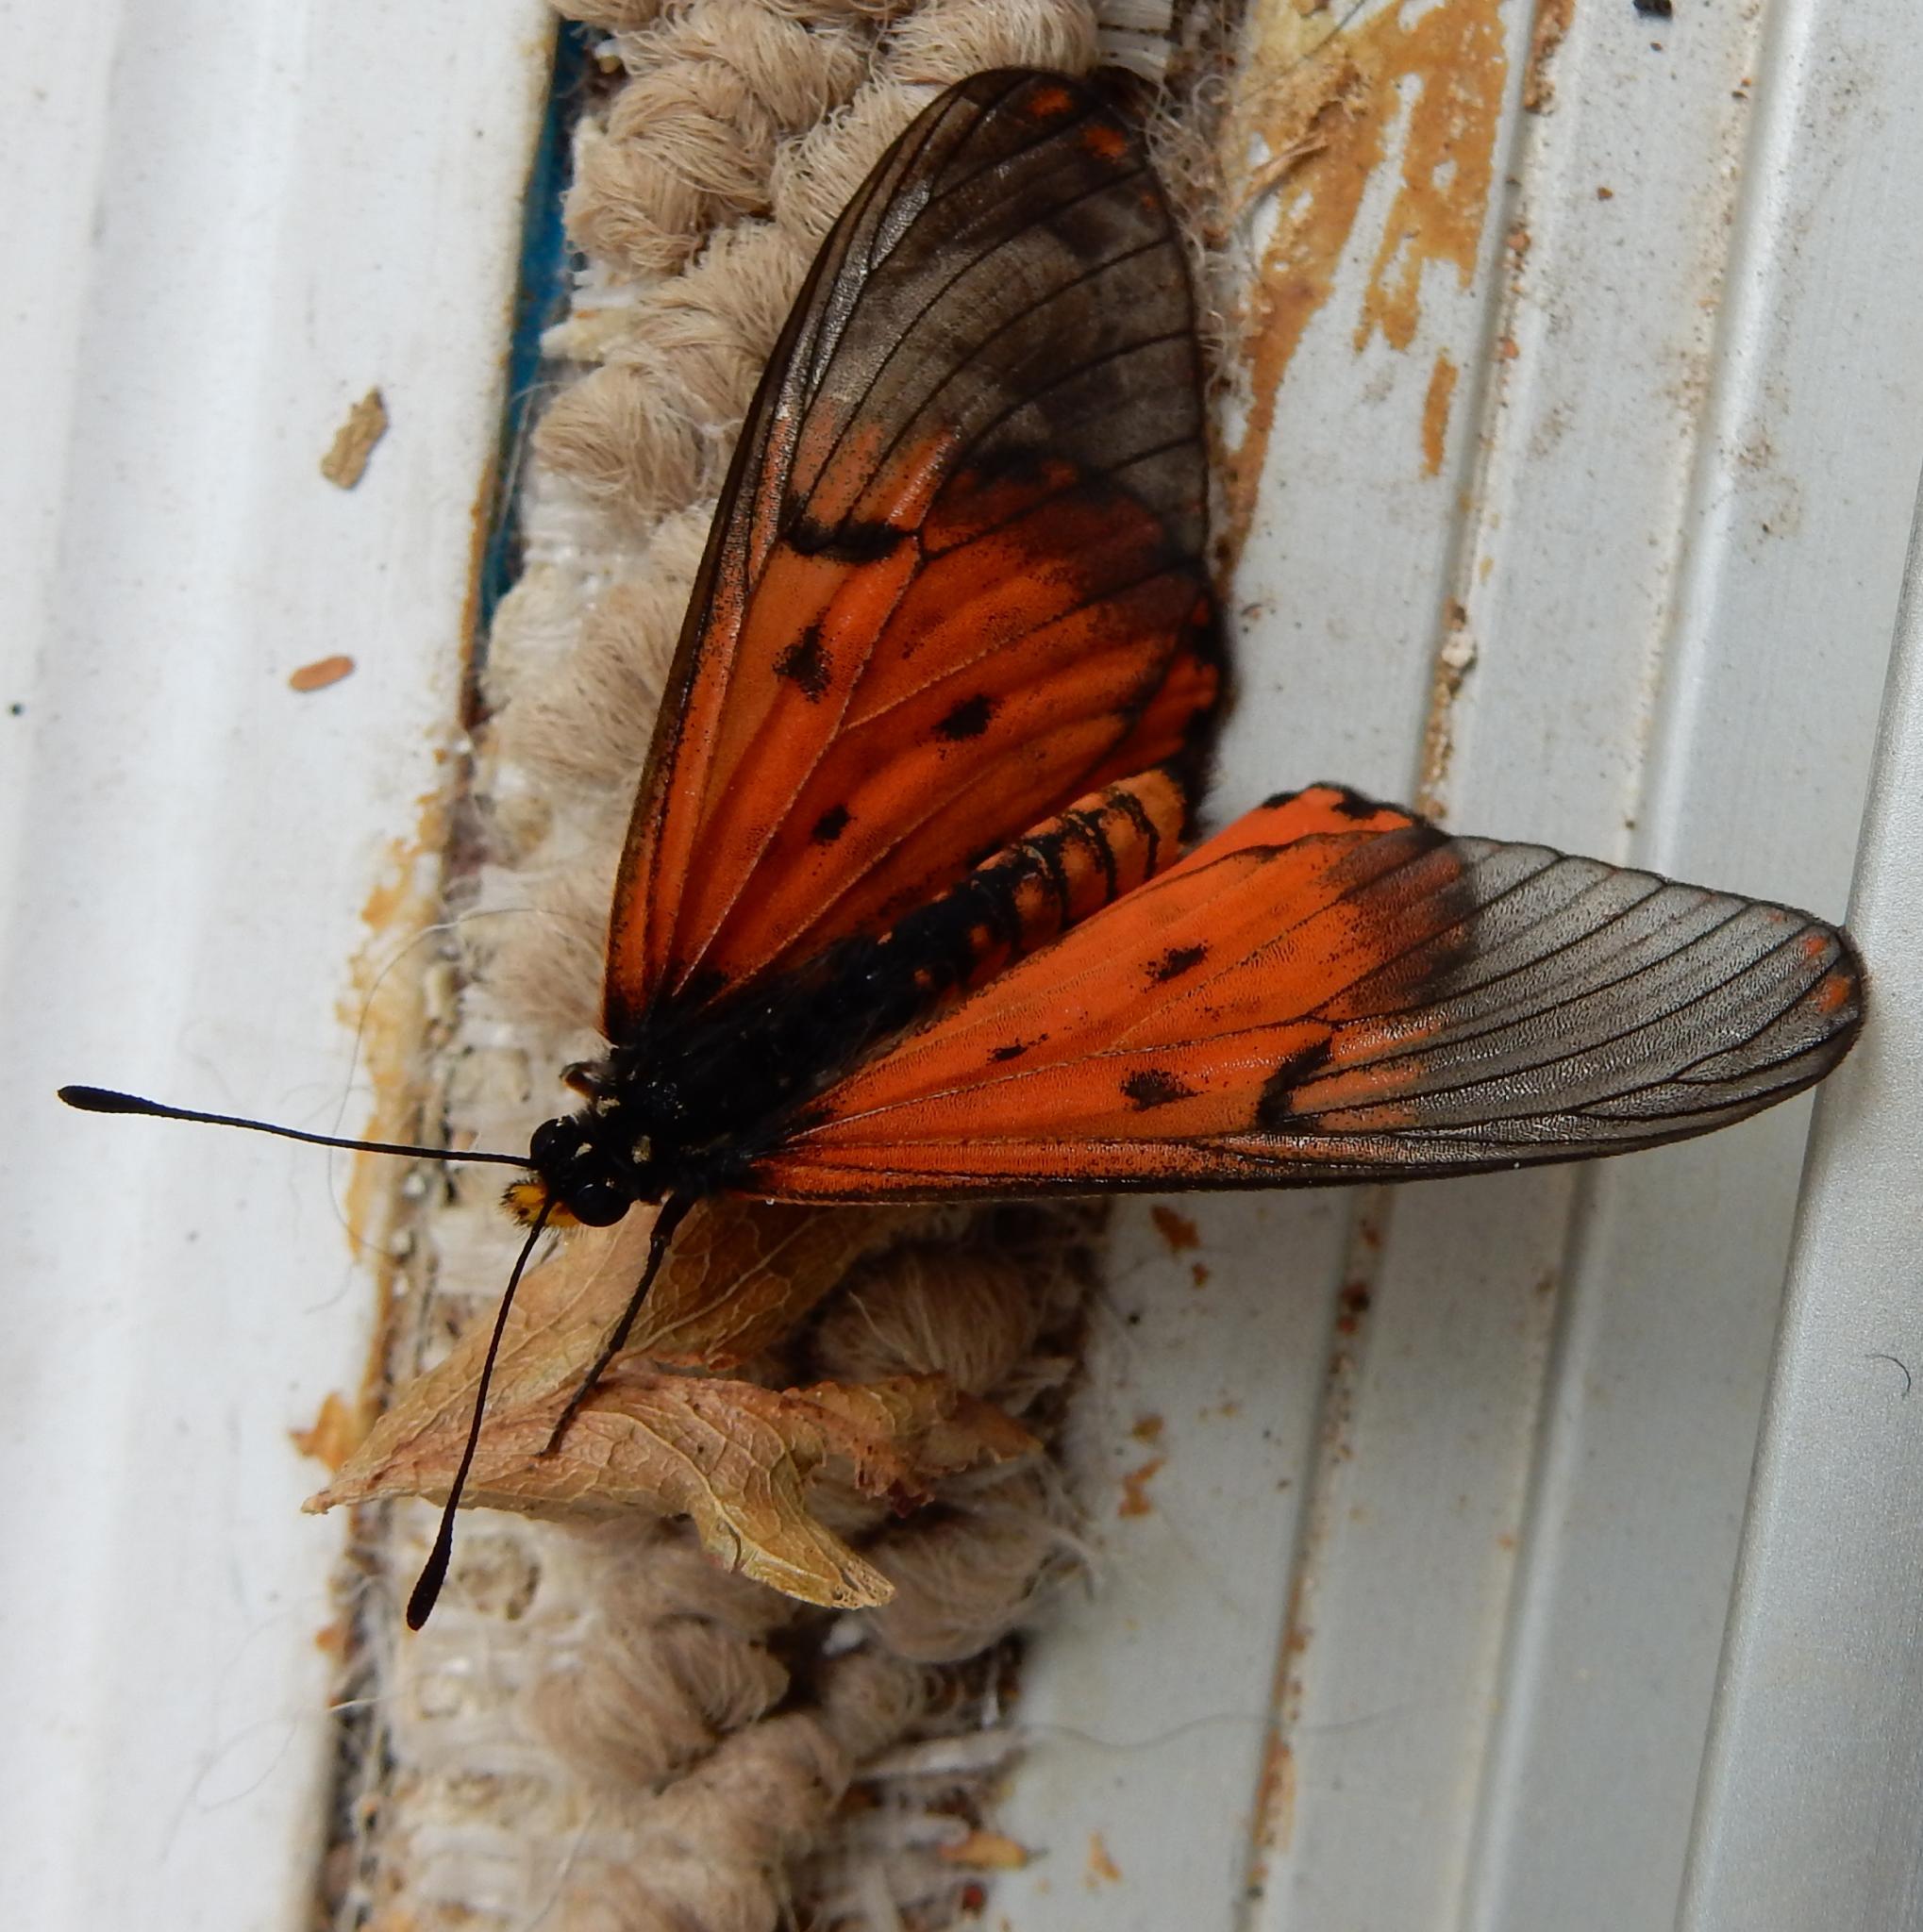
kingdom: Animalia
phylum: Arthropoda
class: Insecta
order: Lepidoptera
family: Nymphalidae
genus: Acraea
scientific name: Acraea horta
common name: Garden acraea
